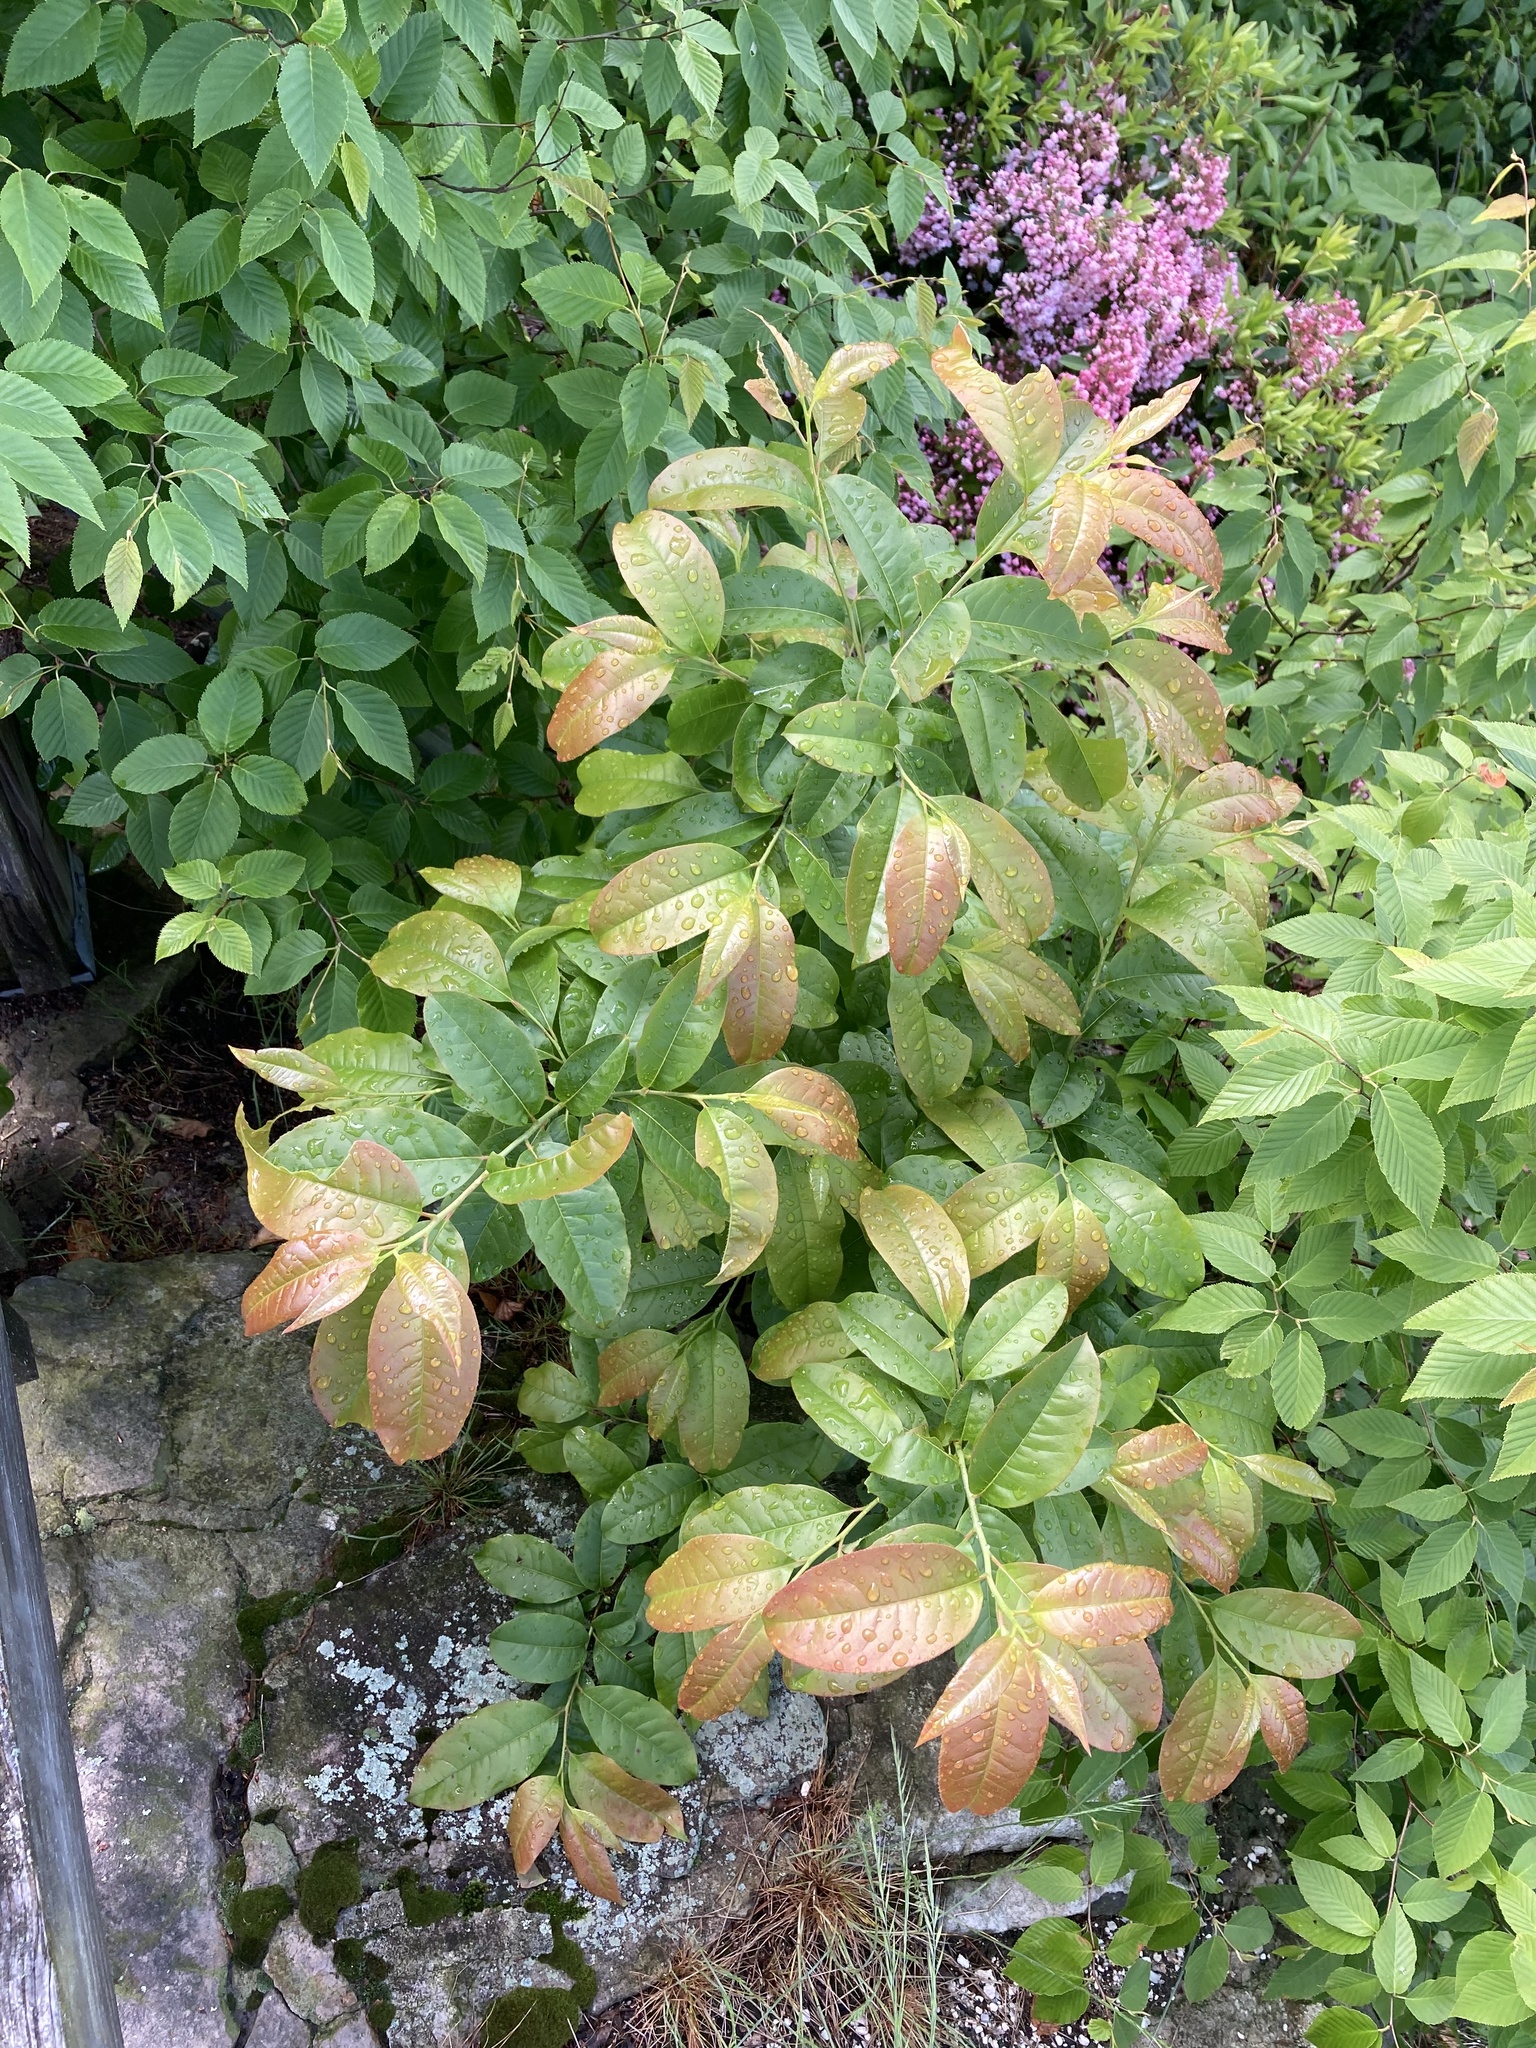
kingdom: Plantae
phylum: Tracheophyta
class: Magnoliopsida
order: Ericales
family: Ericaceae
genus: Oxydendrum
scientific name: Oxydendrum arboreum
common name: Sourwood
